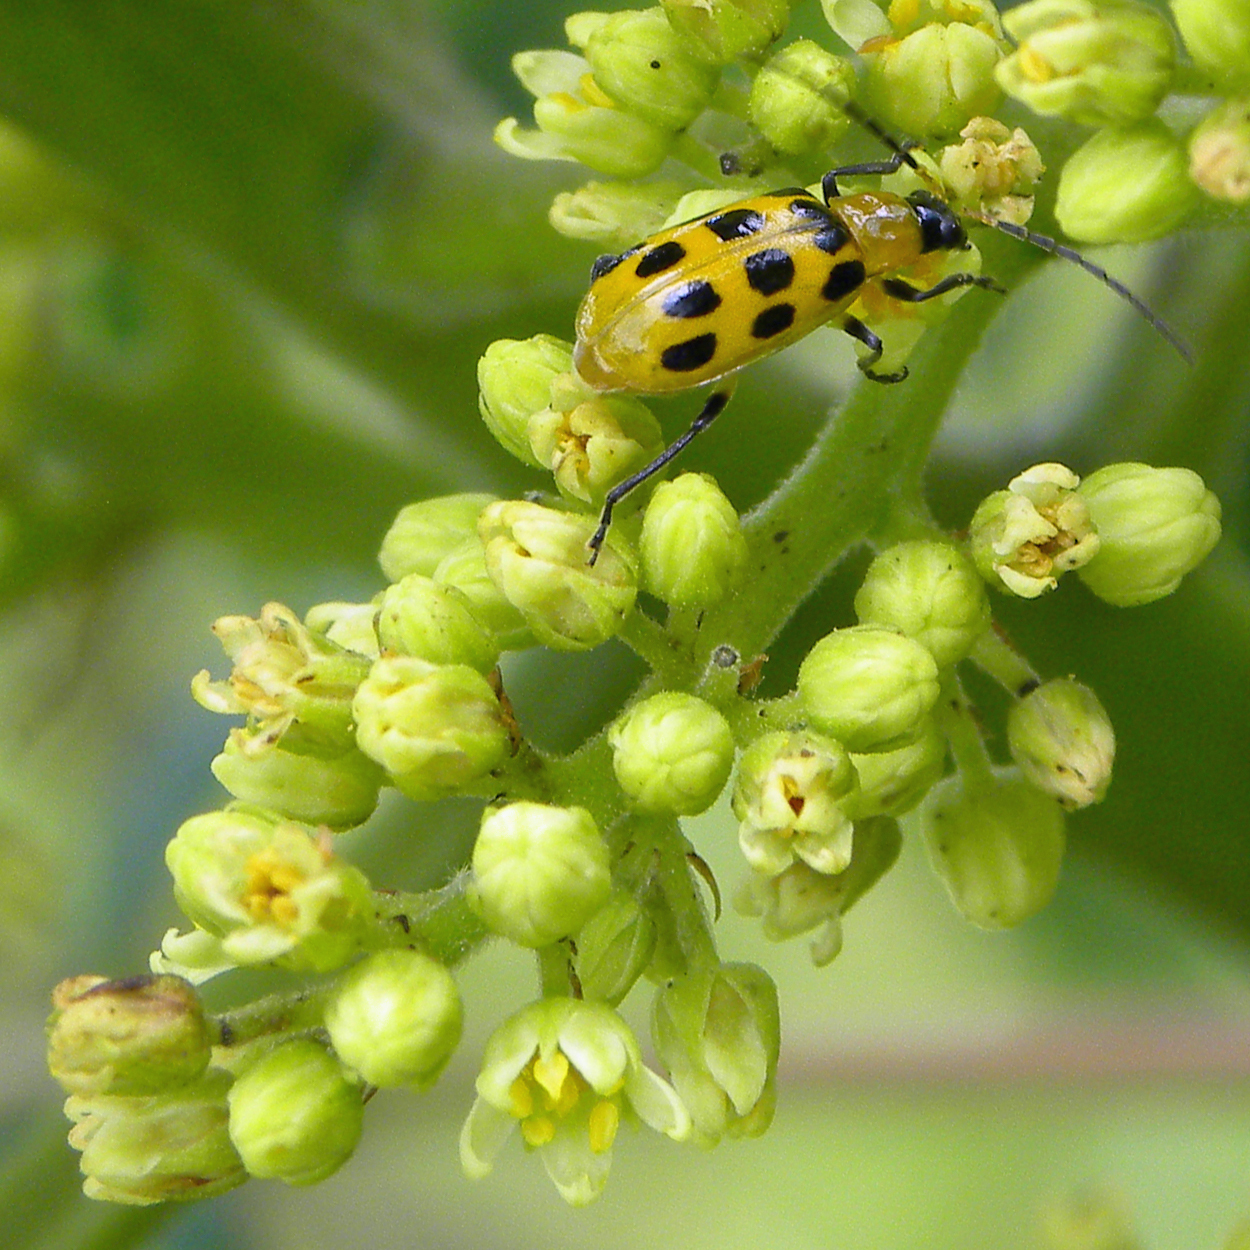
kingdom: Animalia
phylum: Arthropoda
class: Insecta
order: Coleoptera
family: Chrysomelidae
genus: Diabrotica
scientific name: Diabrotica undecimpunctata
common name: Spotted cucumber beetle
